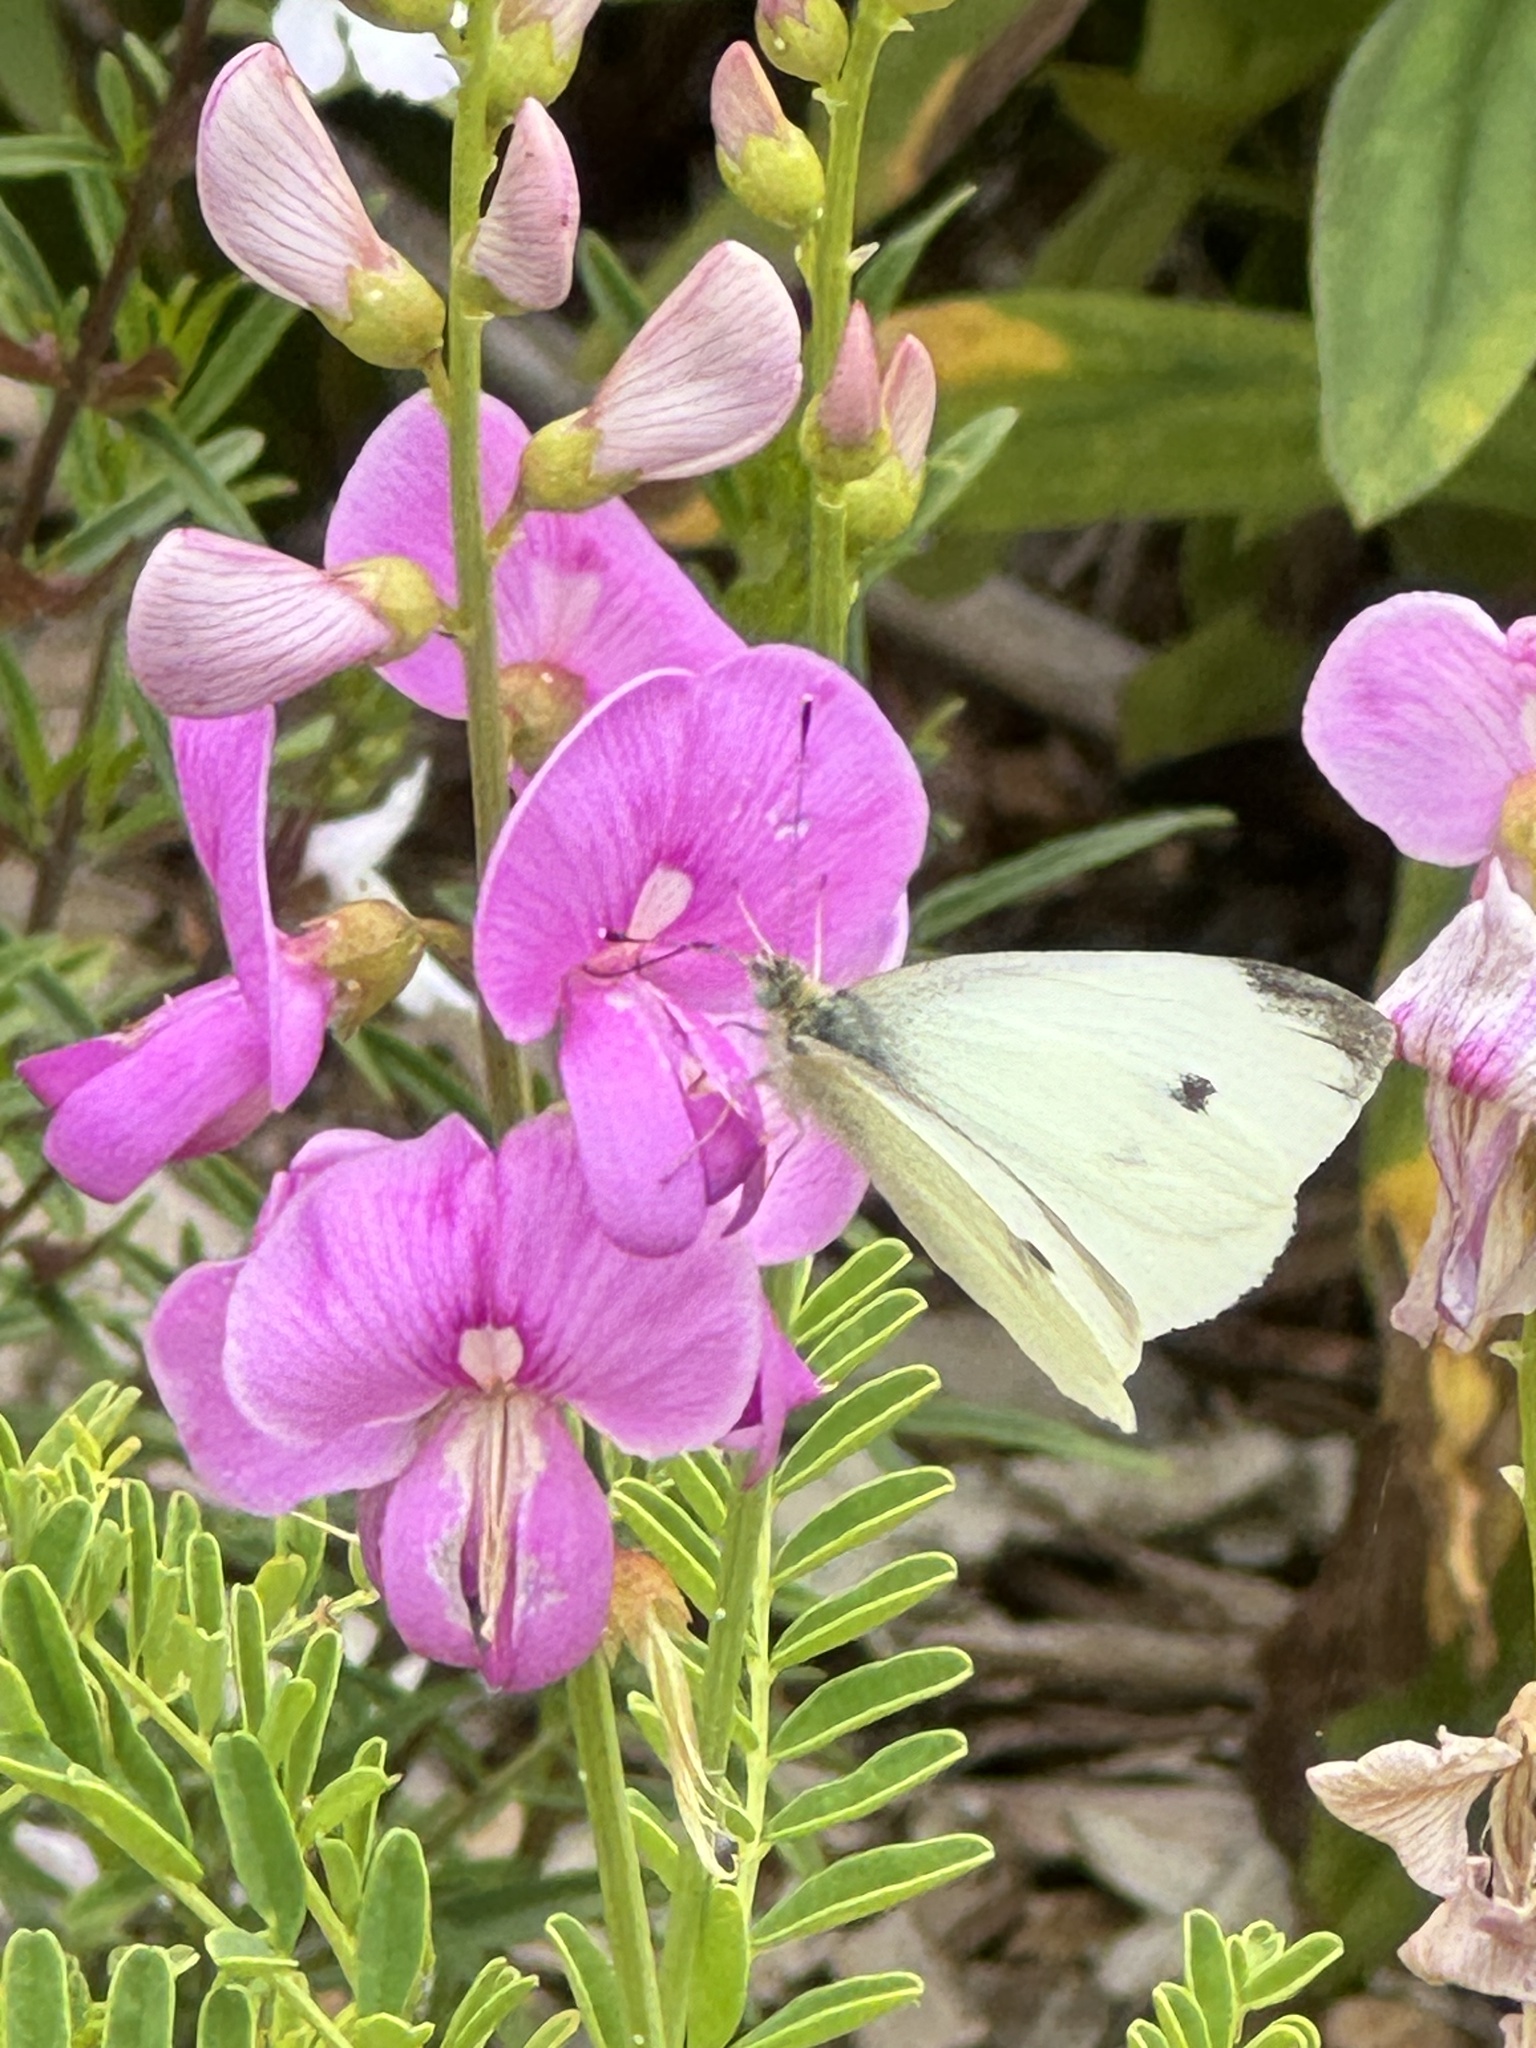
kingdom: Animalia
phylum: Arthropoda
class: Insecta
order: Lepidoptera
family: Pieridae
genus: Pieris
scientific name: Pieris rapae
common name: Small white
